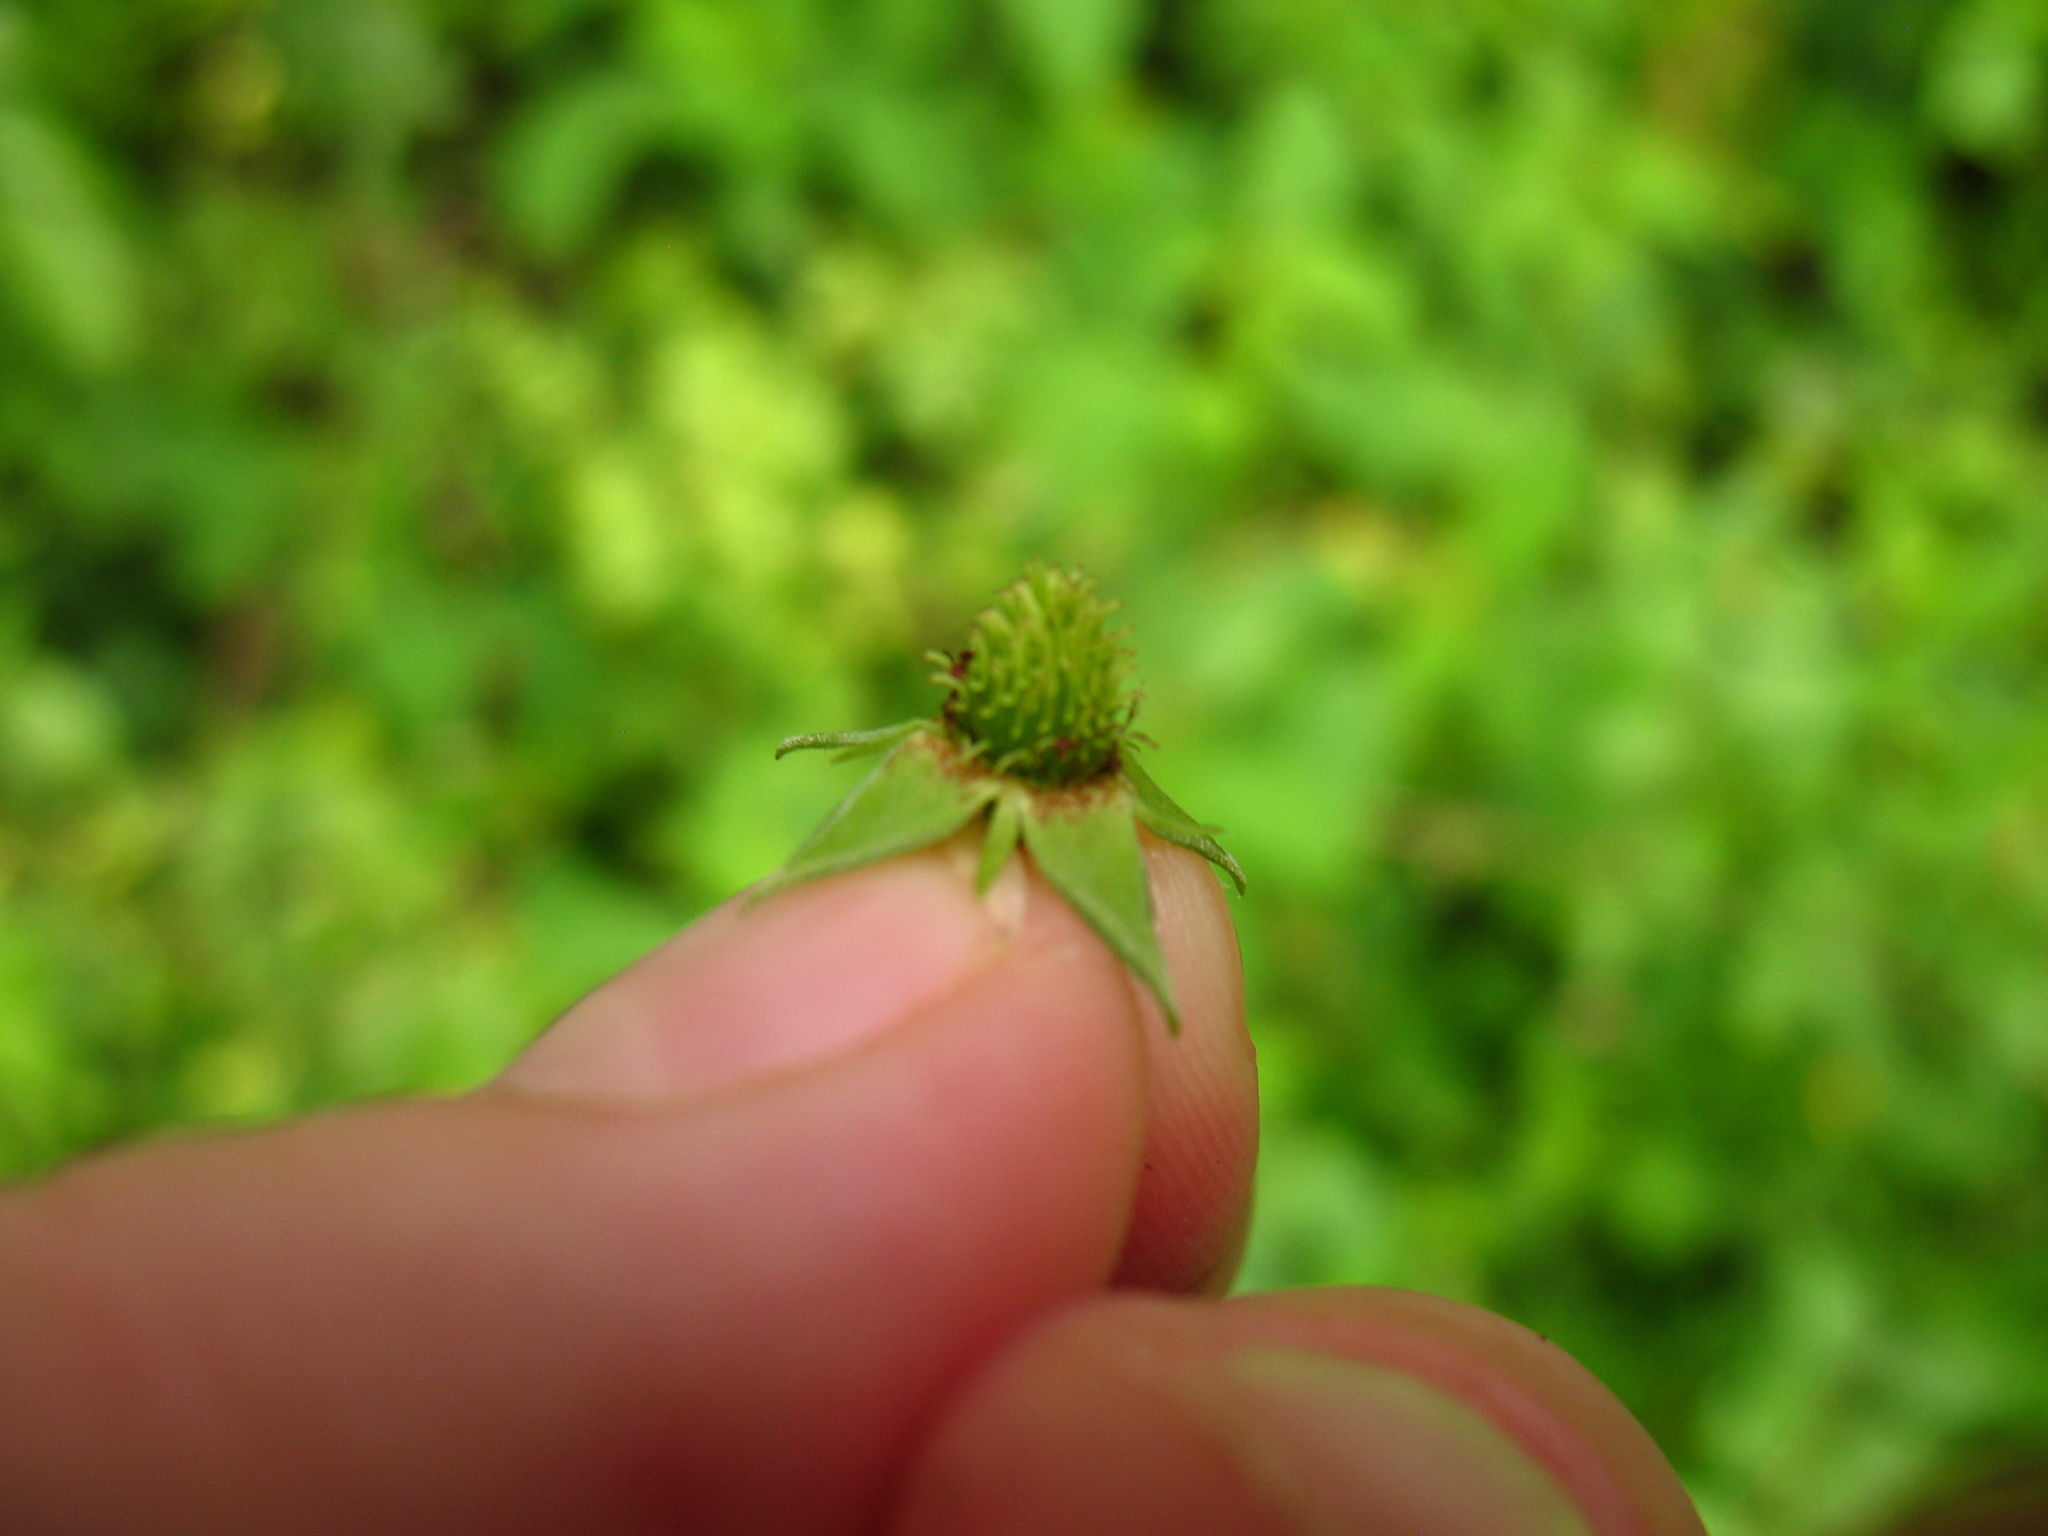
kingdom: Plantae
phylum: Tracheophyta
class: Magnoliopsida
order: Rosales
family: Rosaceae
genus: Geum
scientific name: Geum canadense
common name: White avens
